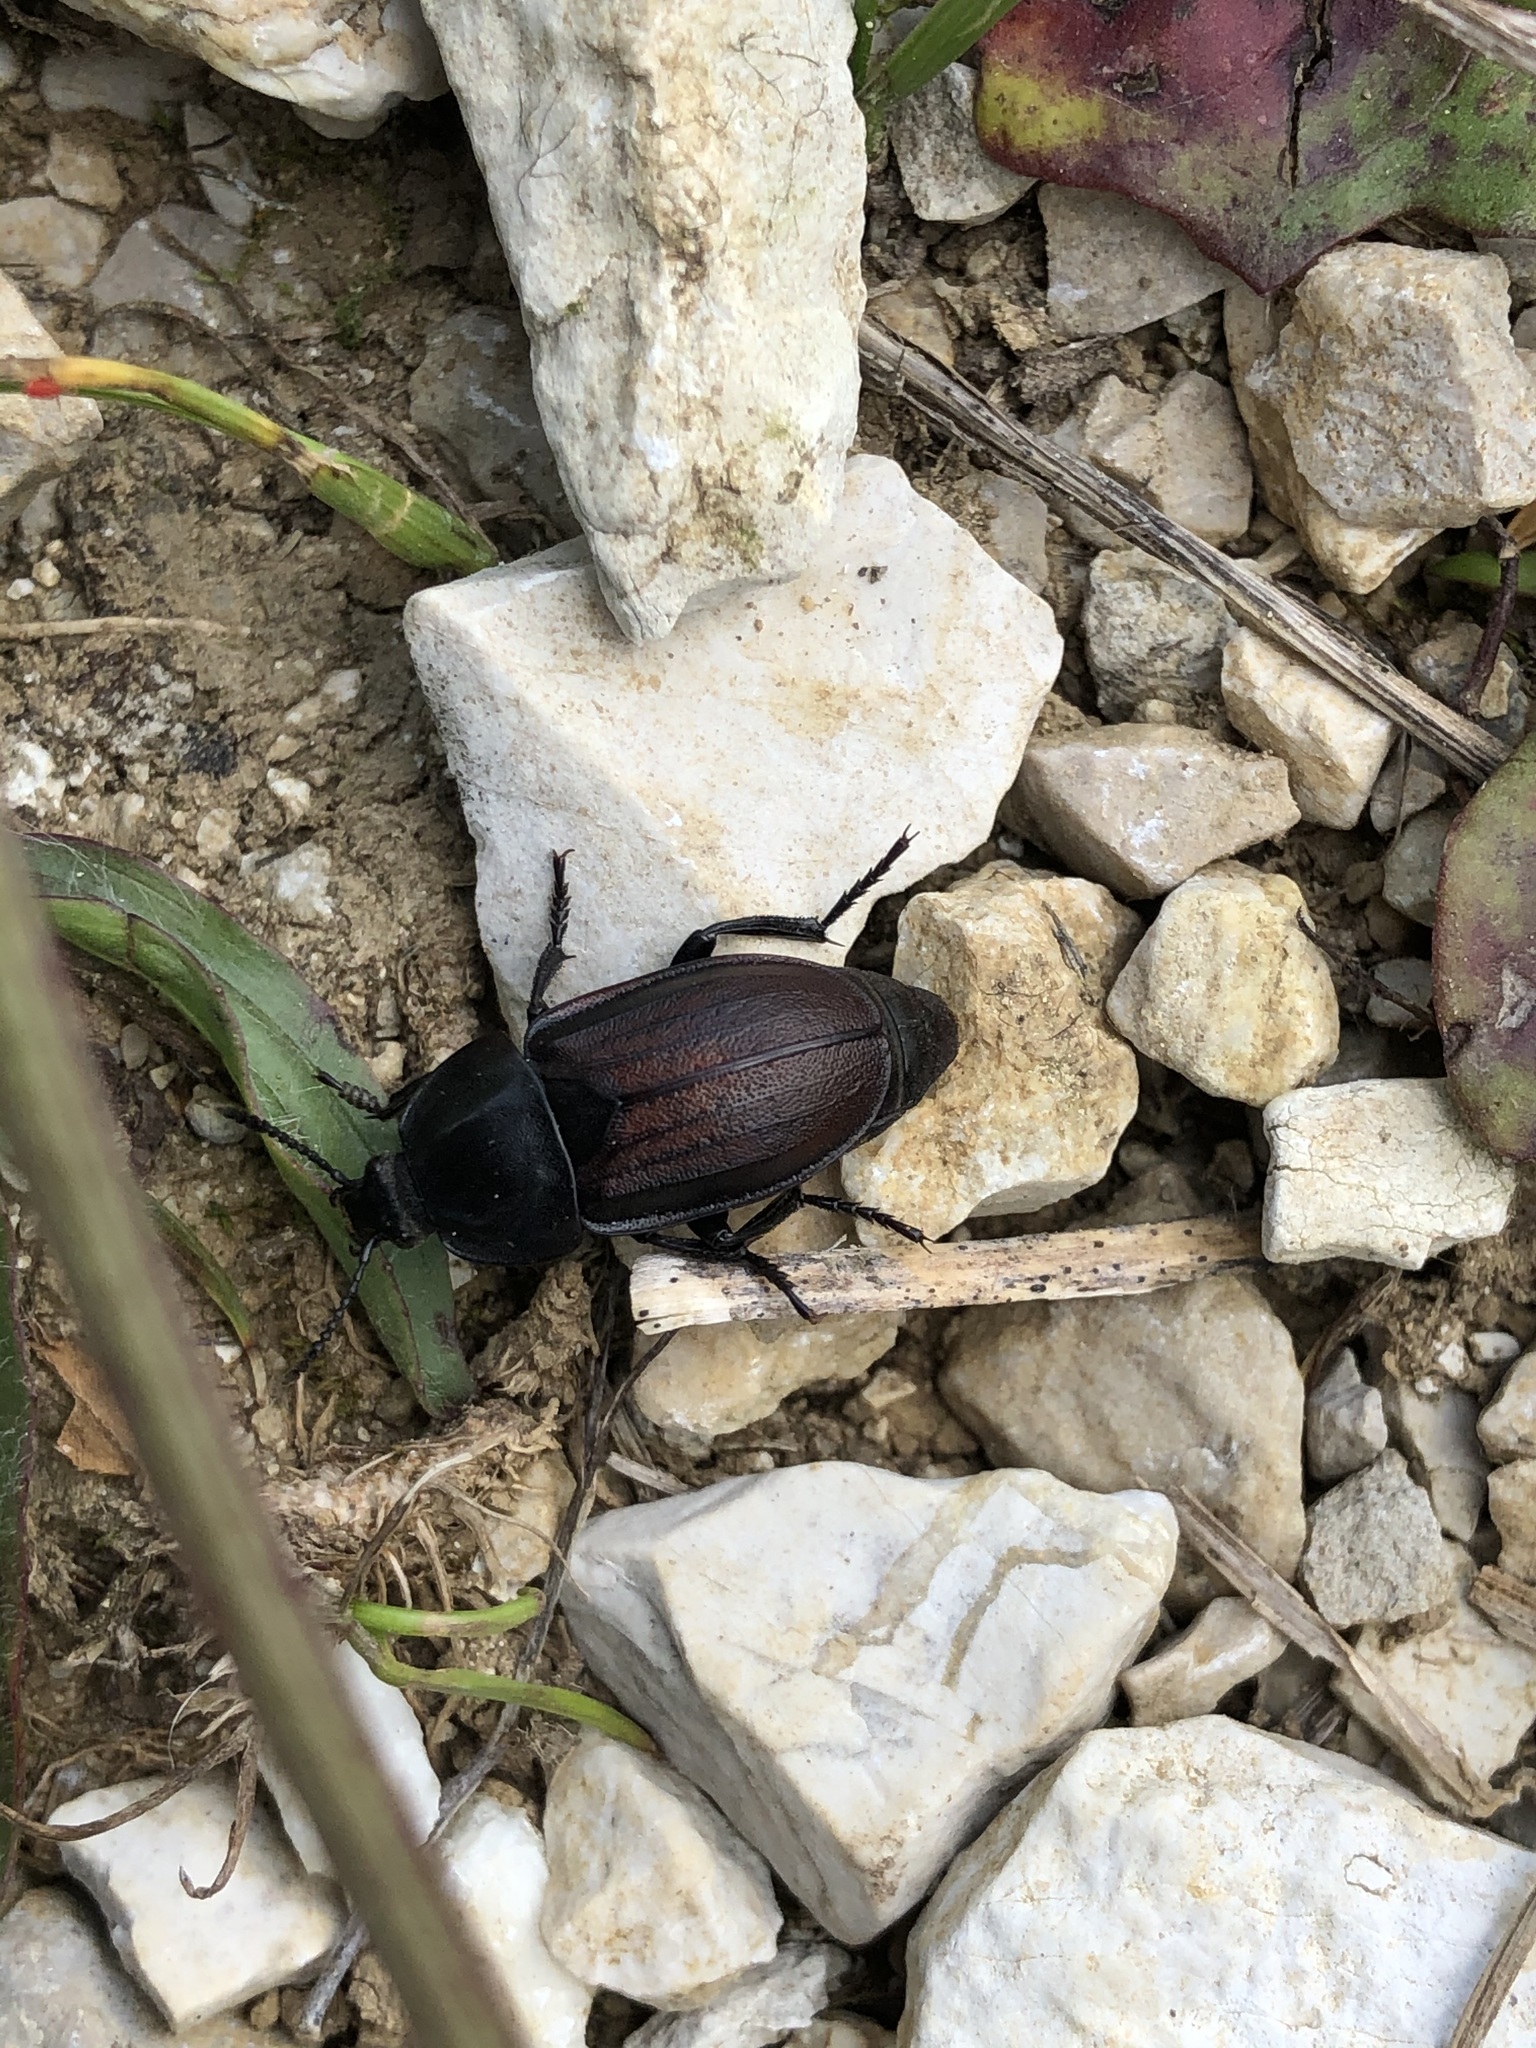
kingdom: Animalia
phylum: Arthropoda
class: Insecta
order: Coleoptera
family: Staphylinidae
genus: Silpha
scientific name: Silpha tyrolensis
